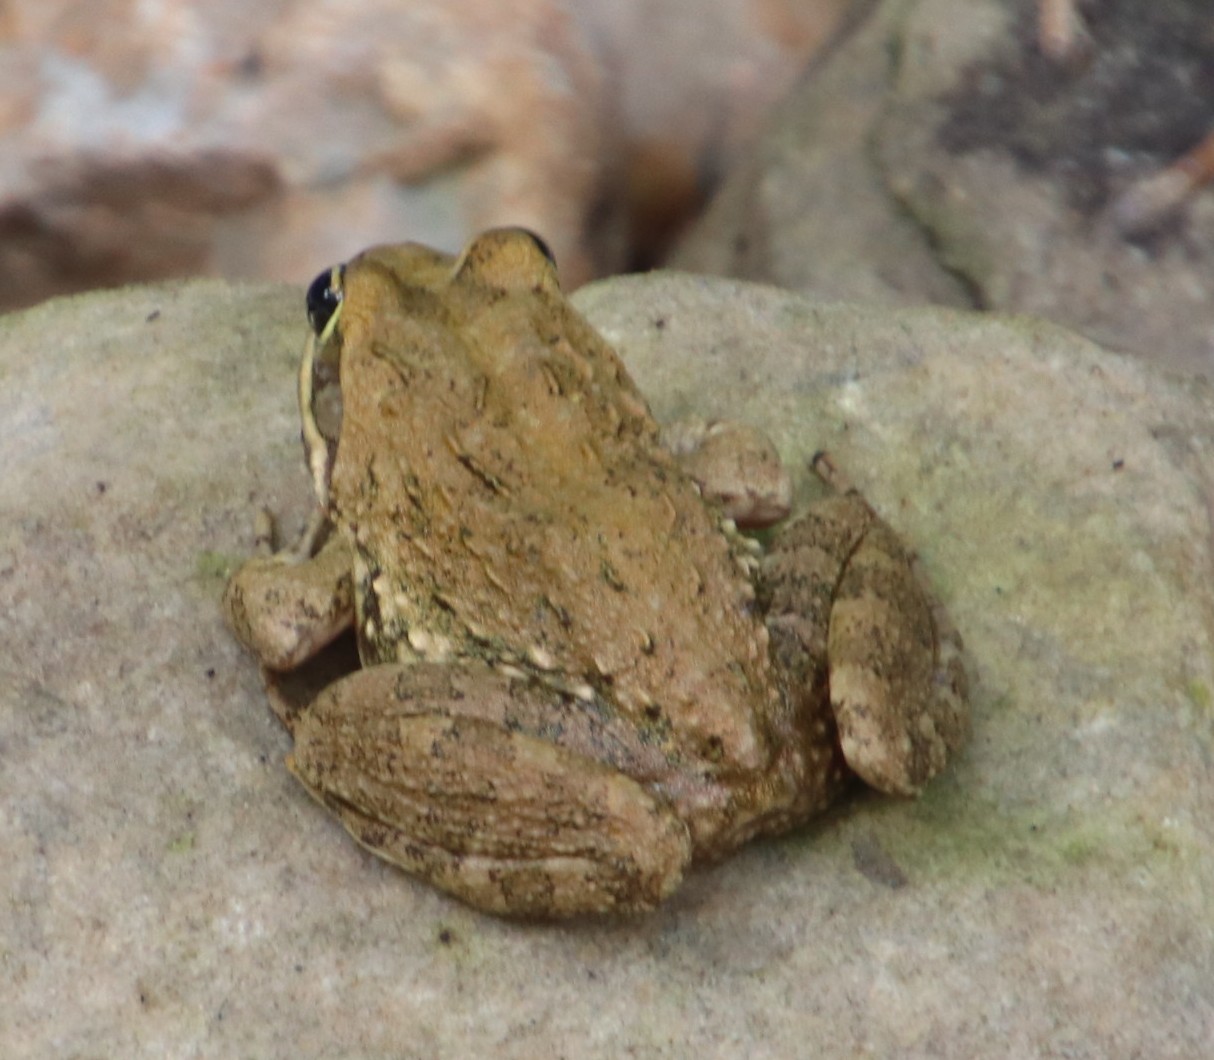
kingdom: Animalia
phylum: Chordata
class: Amphibia
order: Anura
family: Pyxicephalidae
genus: Amietia
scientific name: Amietia fuscigula
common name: Cape rana
